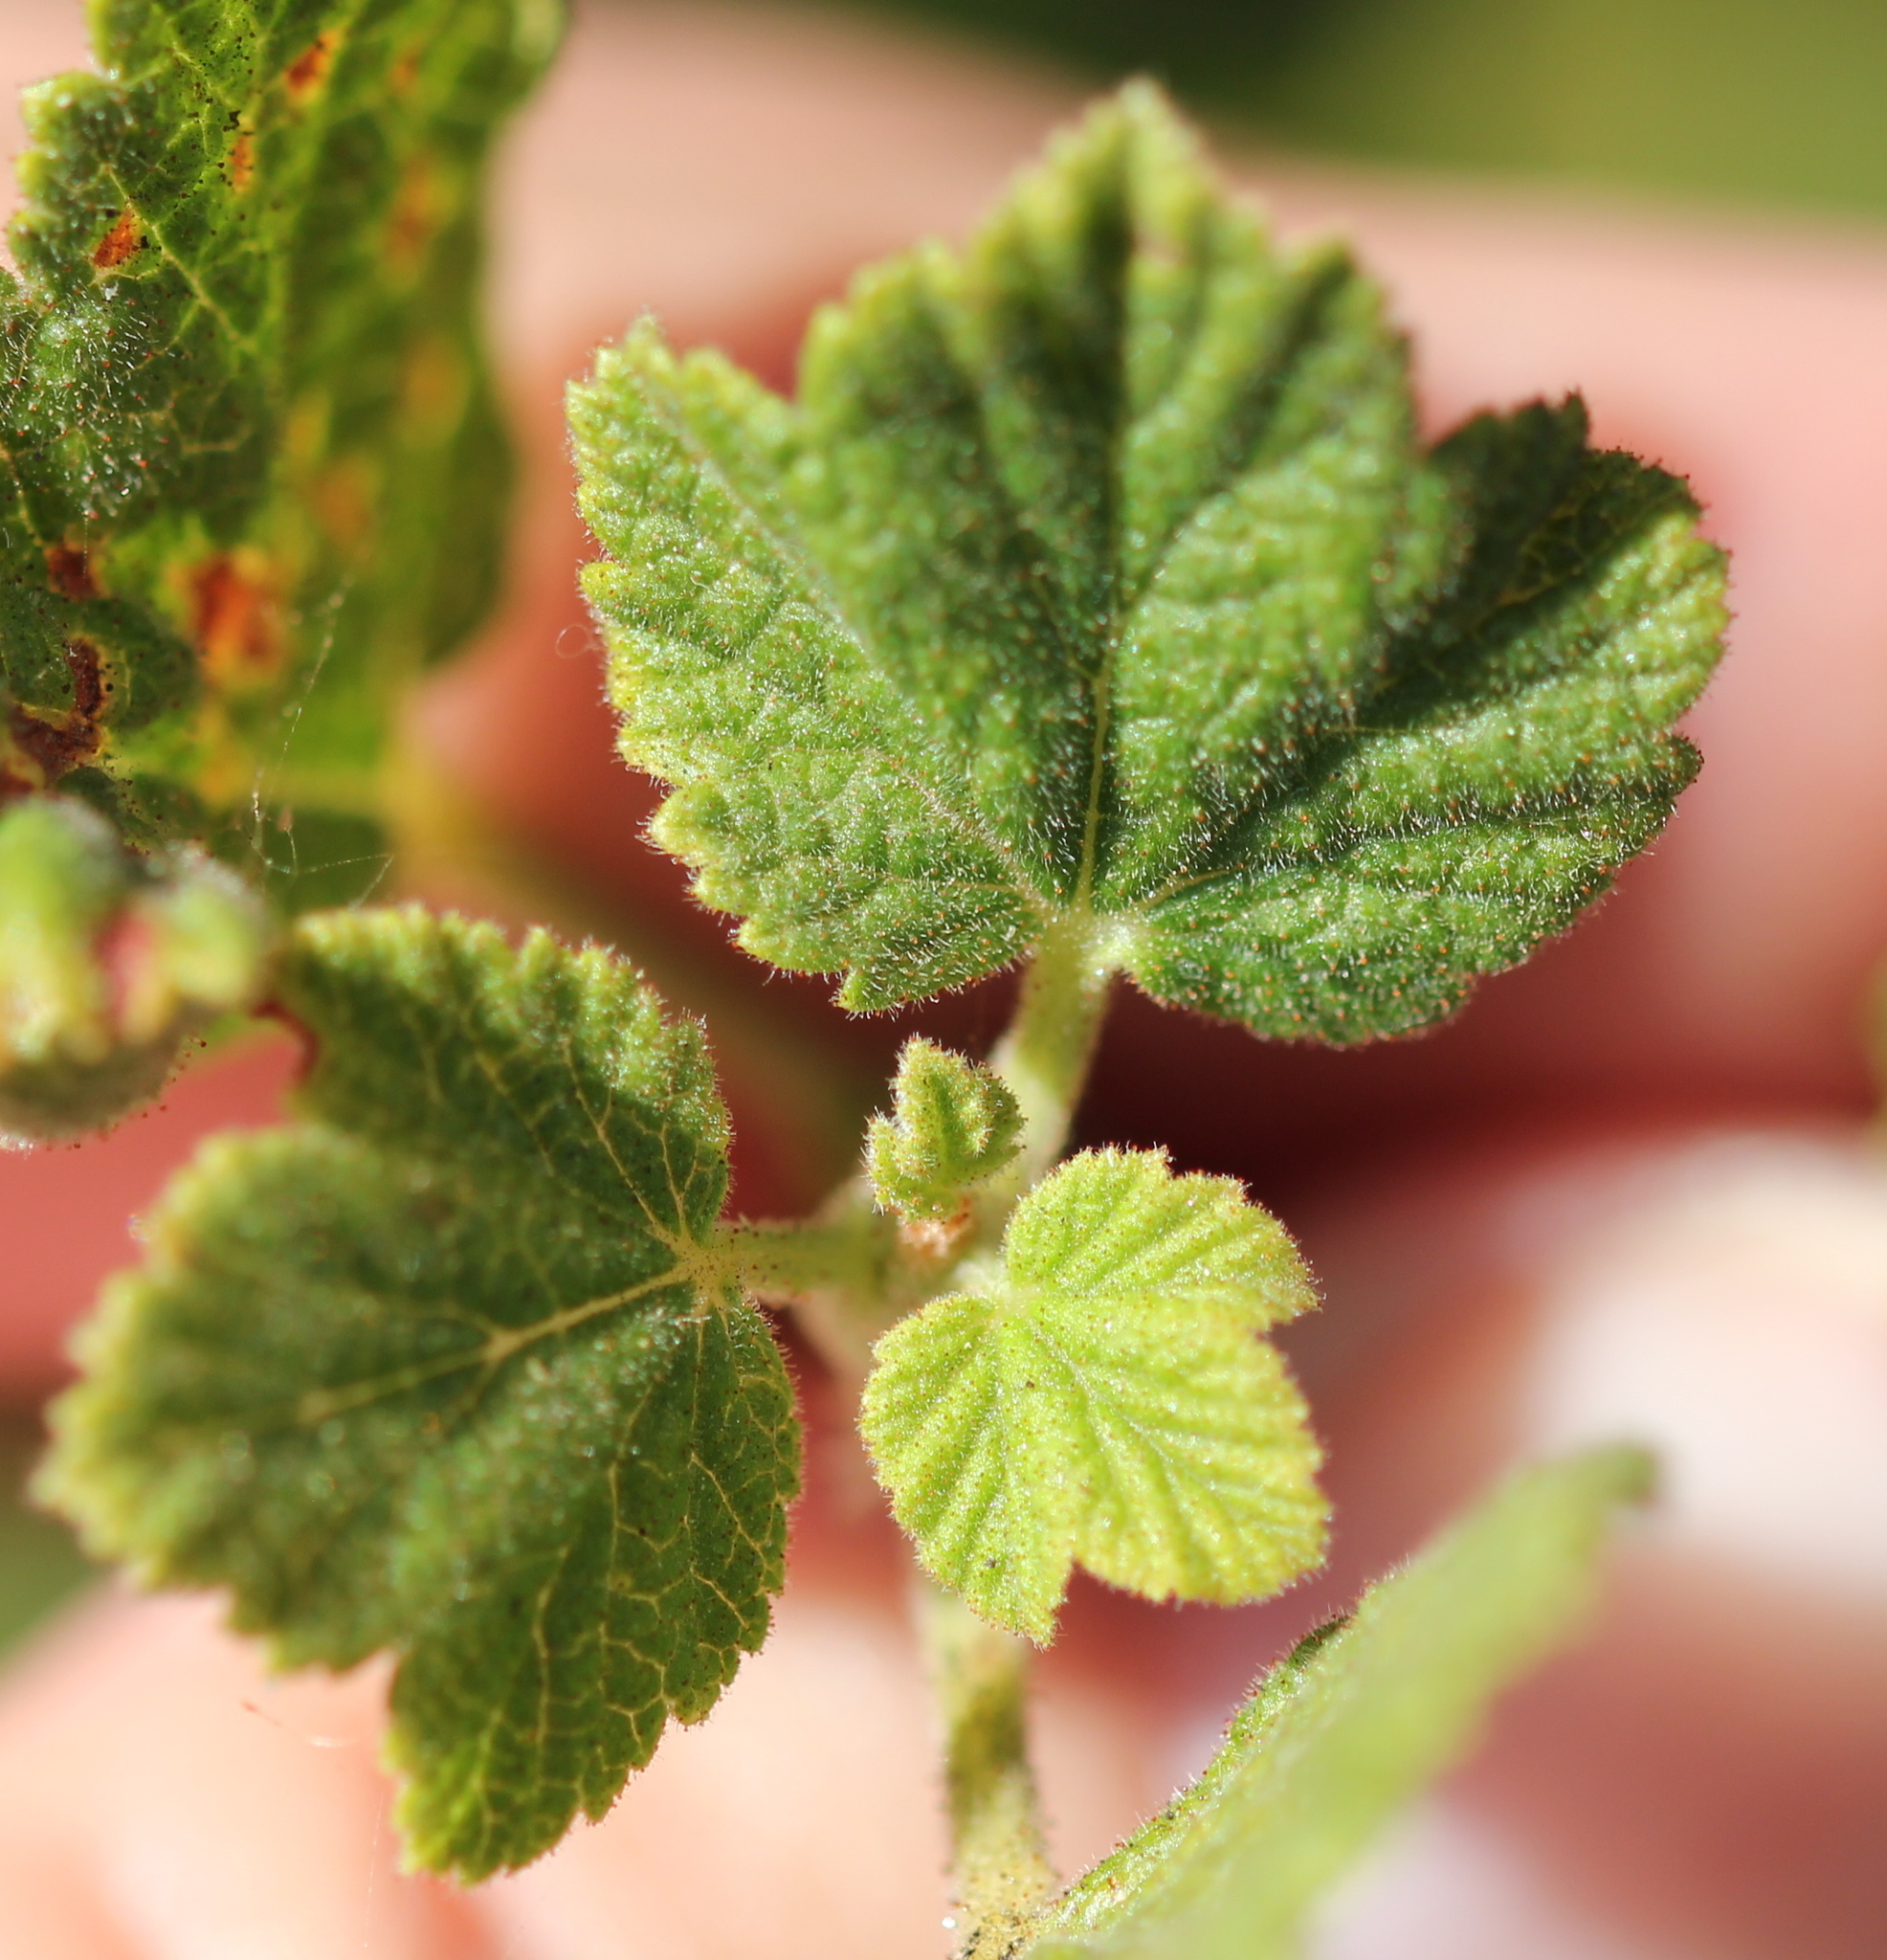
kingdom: Plantae
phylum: Tracheophyta
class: Magnoliopsida
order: Saxifragales
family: Grossulariaceae
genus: Ribes
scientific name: Ribes indecorum
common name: White-flower currant
